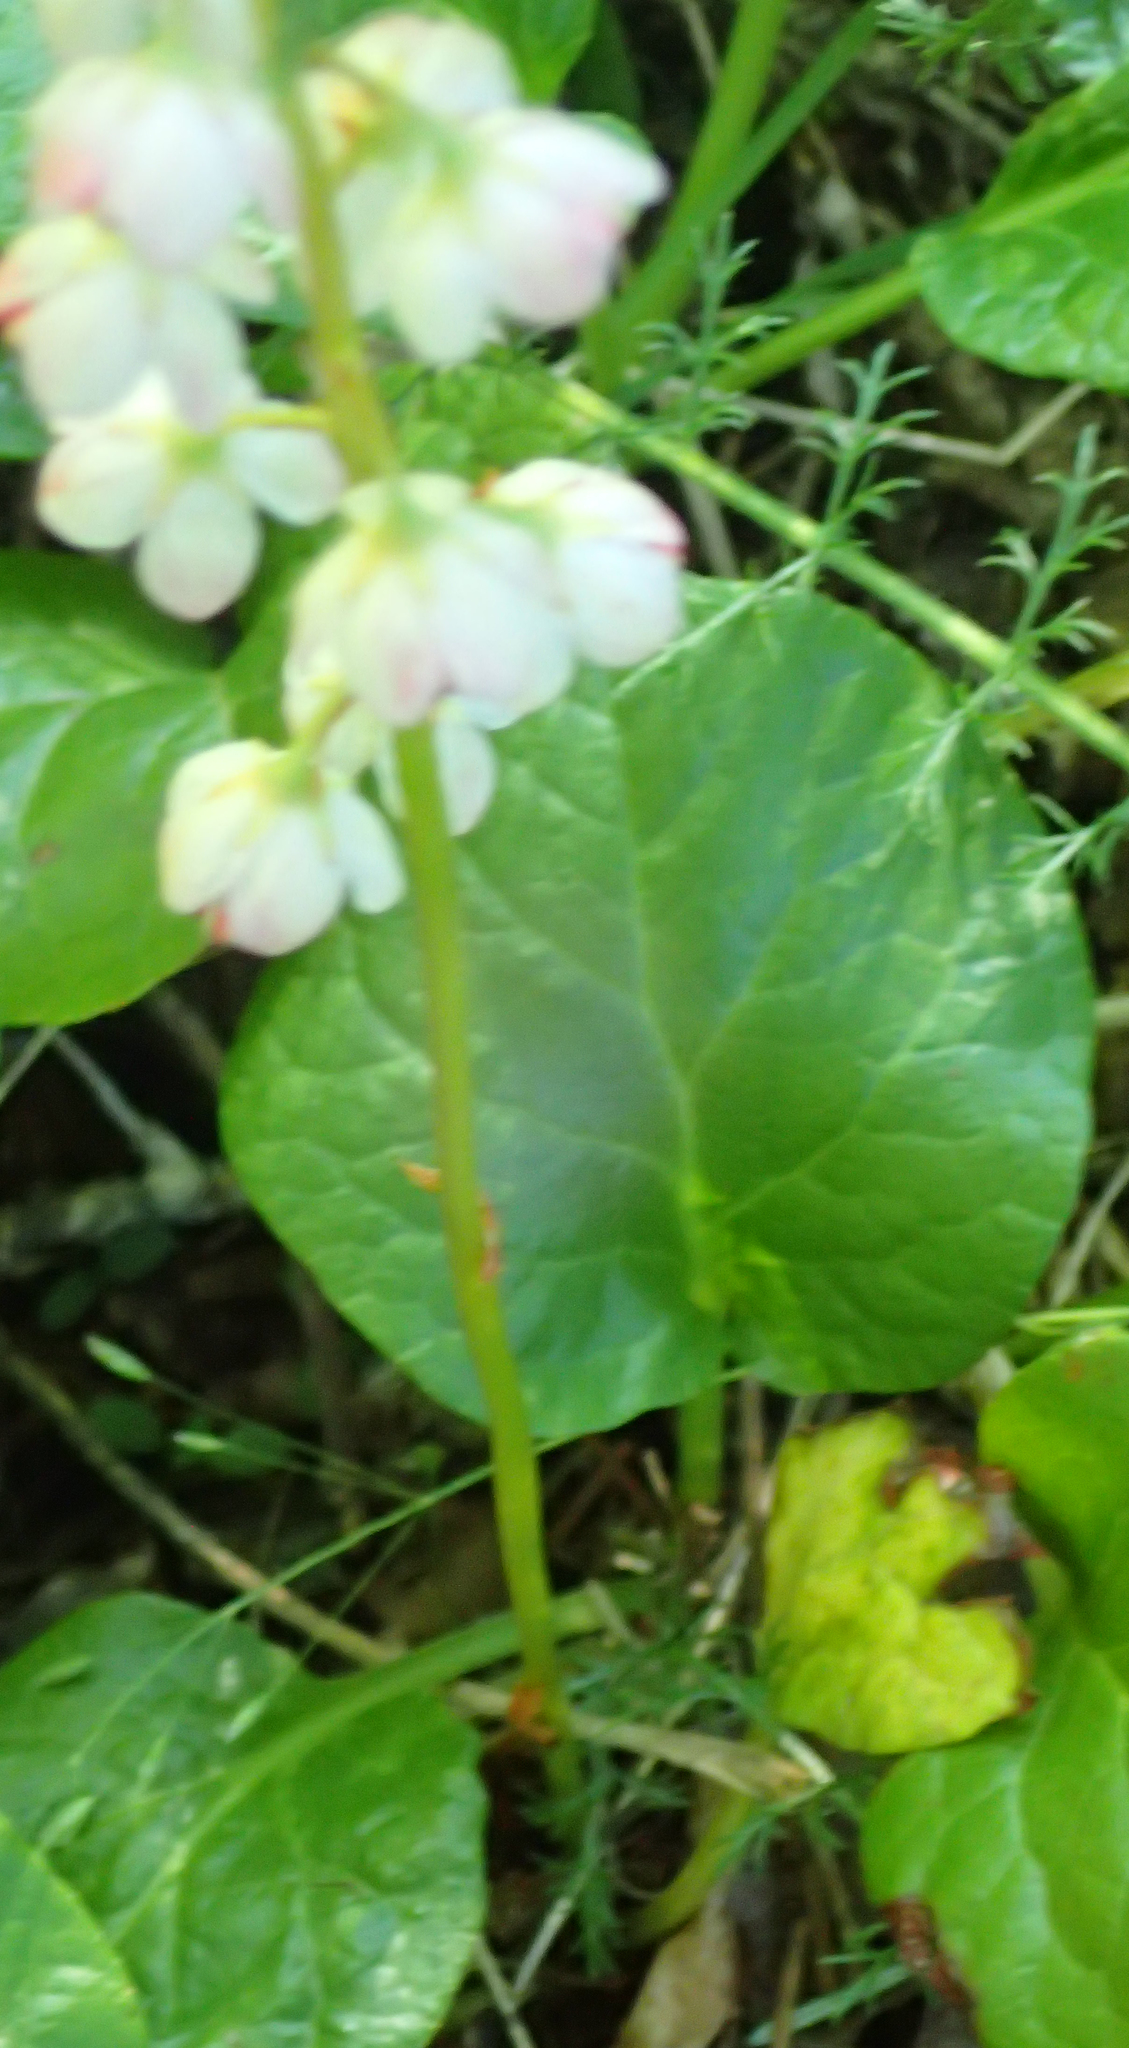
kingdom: Plantae
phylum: Tracheophyta
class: Magnoliopsida
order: Ericales
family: Ericaceae
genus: Pyrola
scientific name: Pyrola grandiflora
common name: Arctic pyrola
